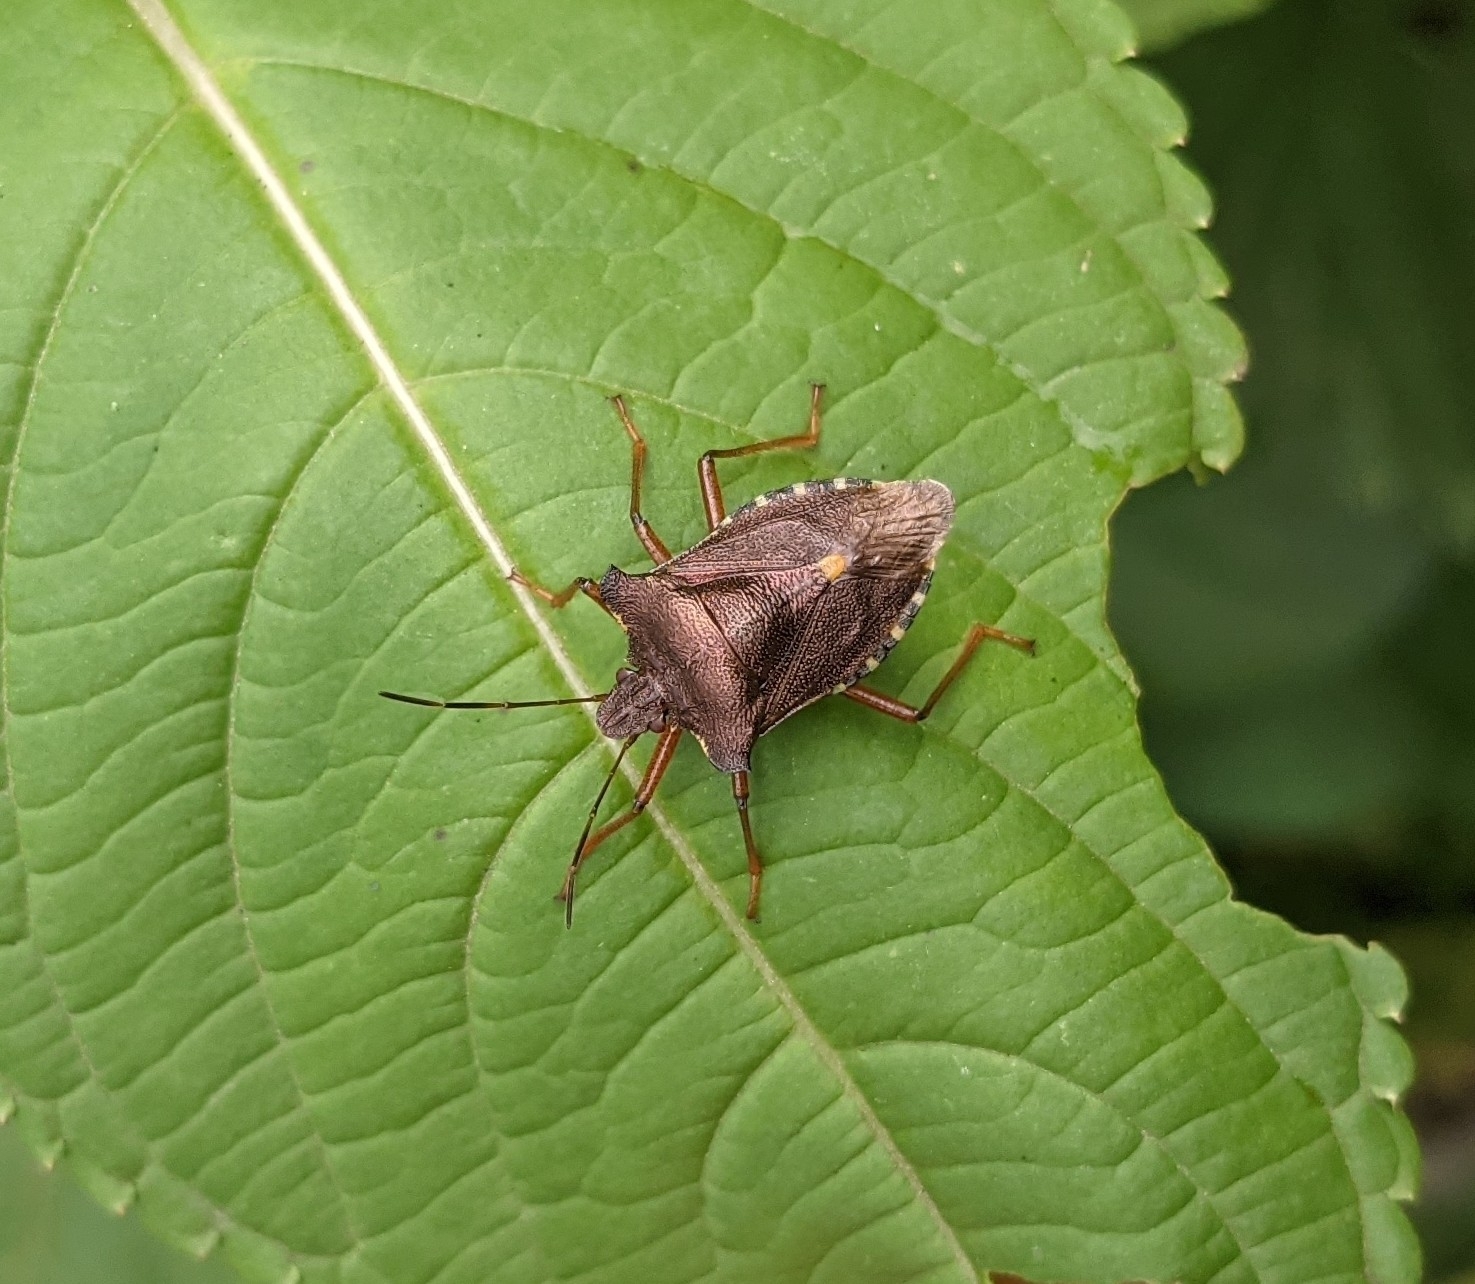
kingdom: Animalia
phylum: Arthropoda
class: Insecta
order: Hemiptera
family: Pentatomidae
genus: Pentatoma
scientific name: Pentatoma rufipes
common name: Forest bug
